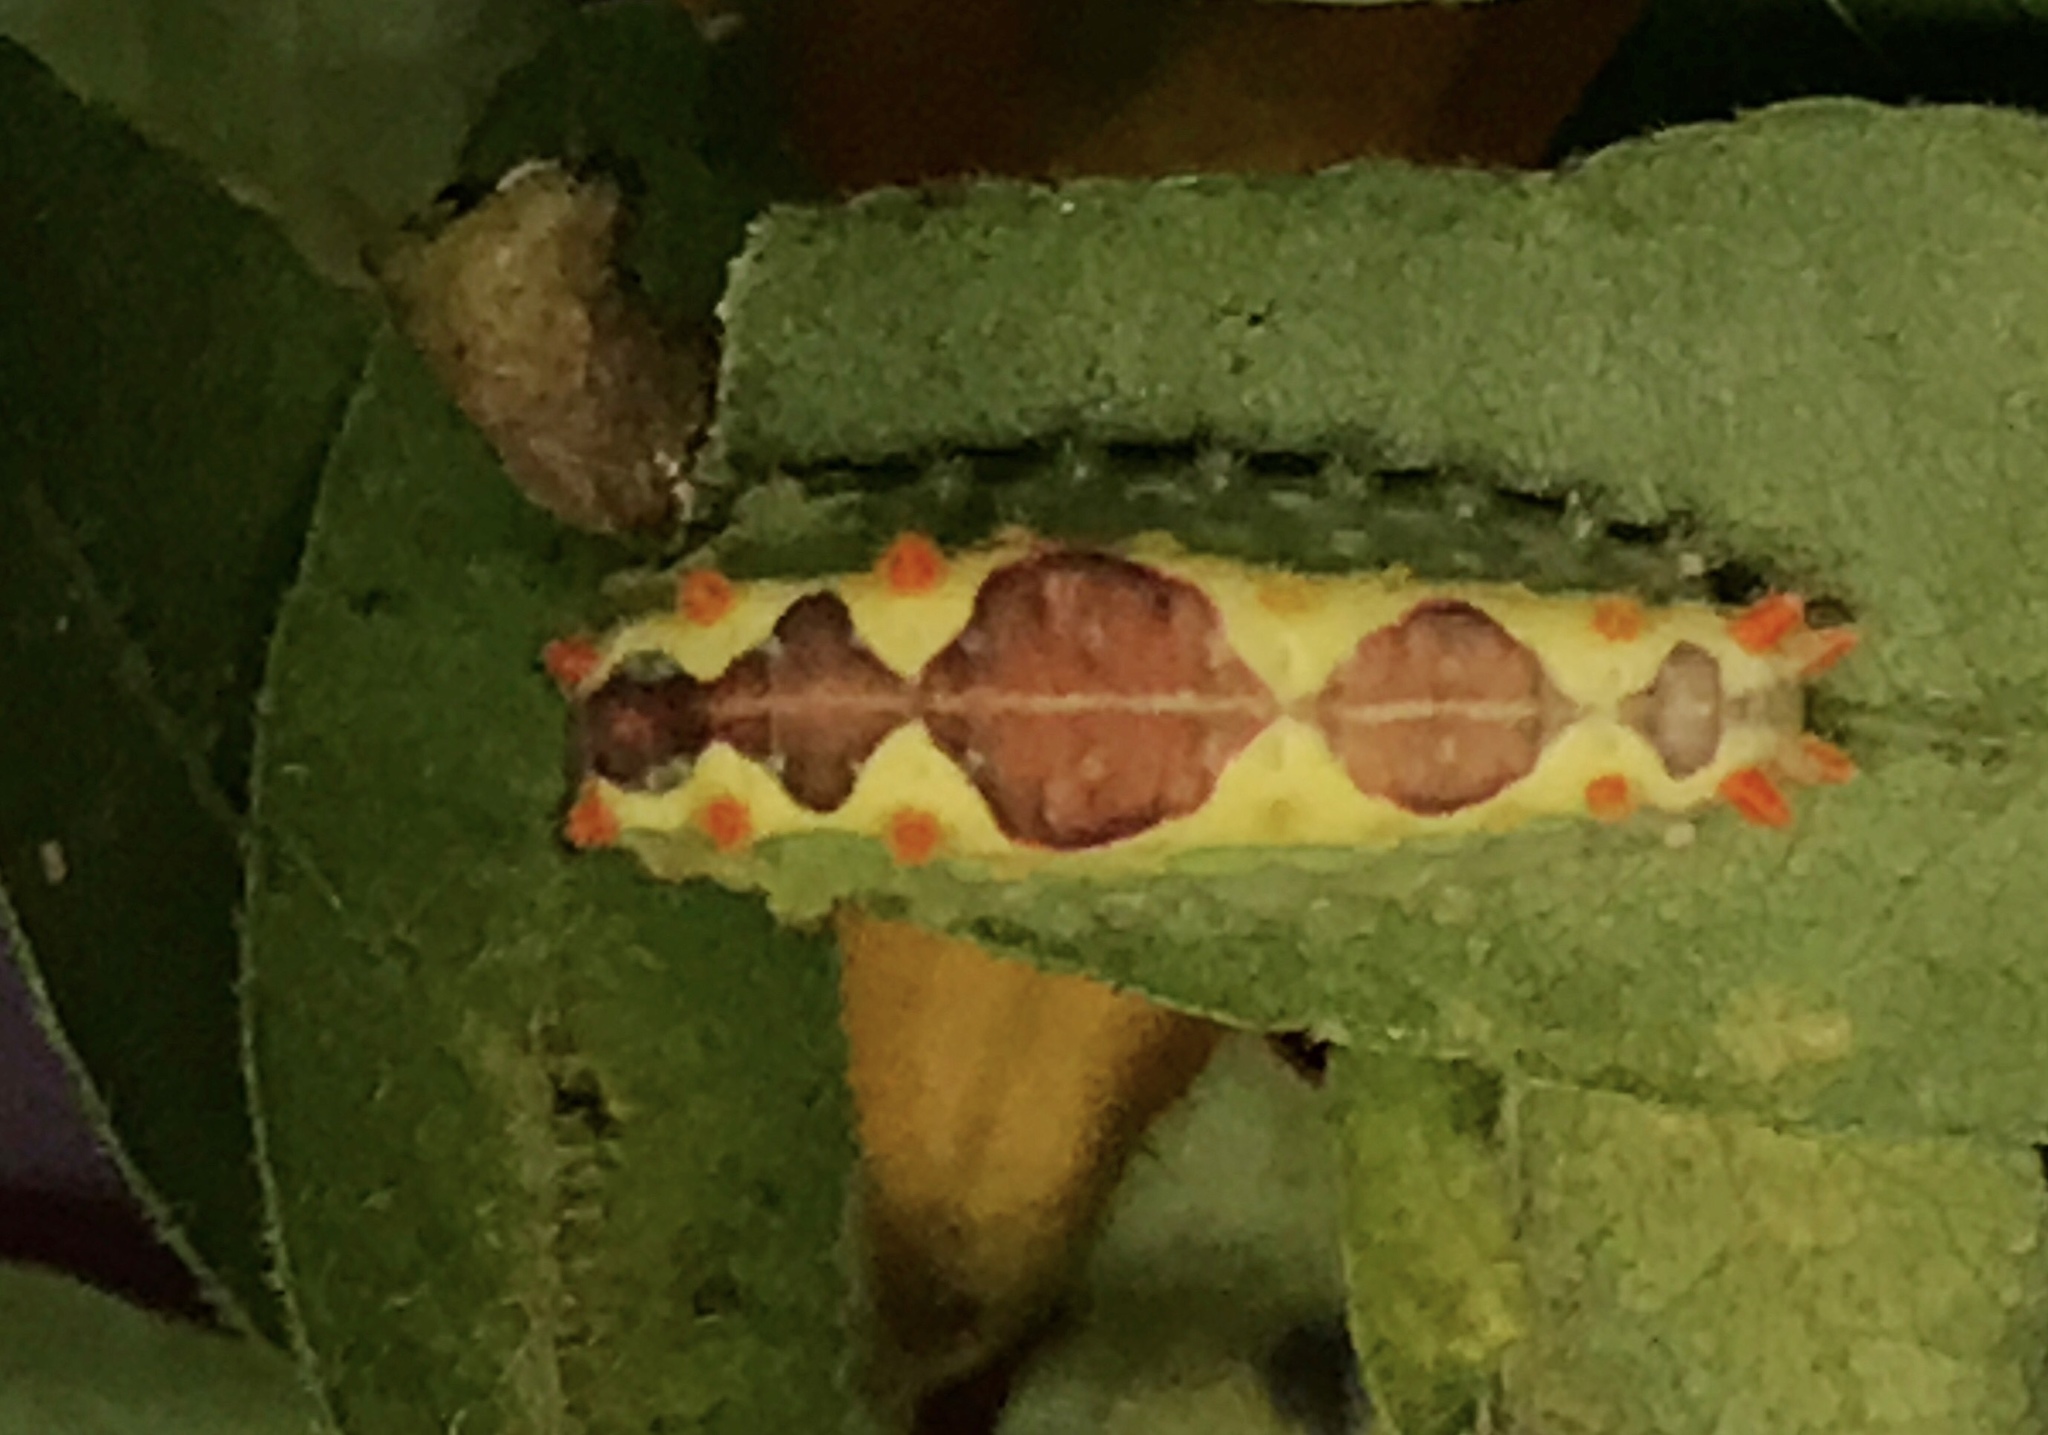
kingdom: Animalia
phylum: Arthropoda
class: Insecta
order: Lepidoptera
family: Limacodidae
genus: Adoneta
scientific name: Adoneta spinuloides
